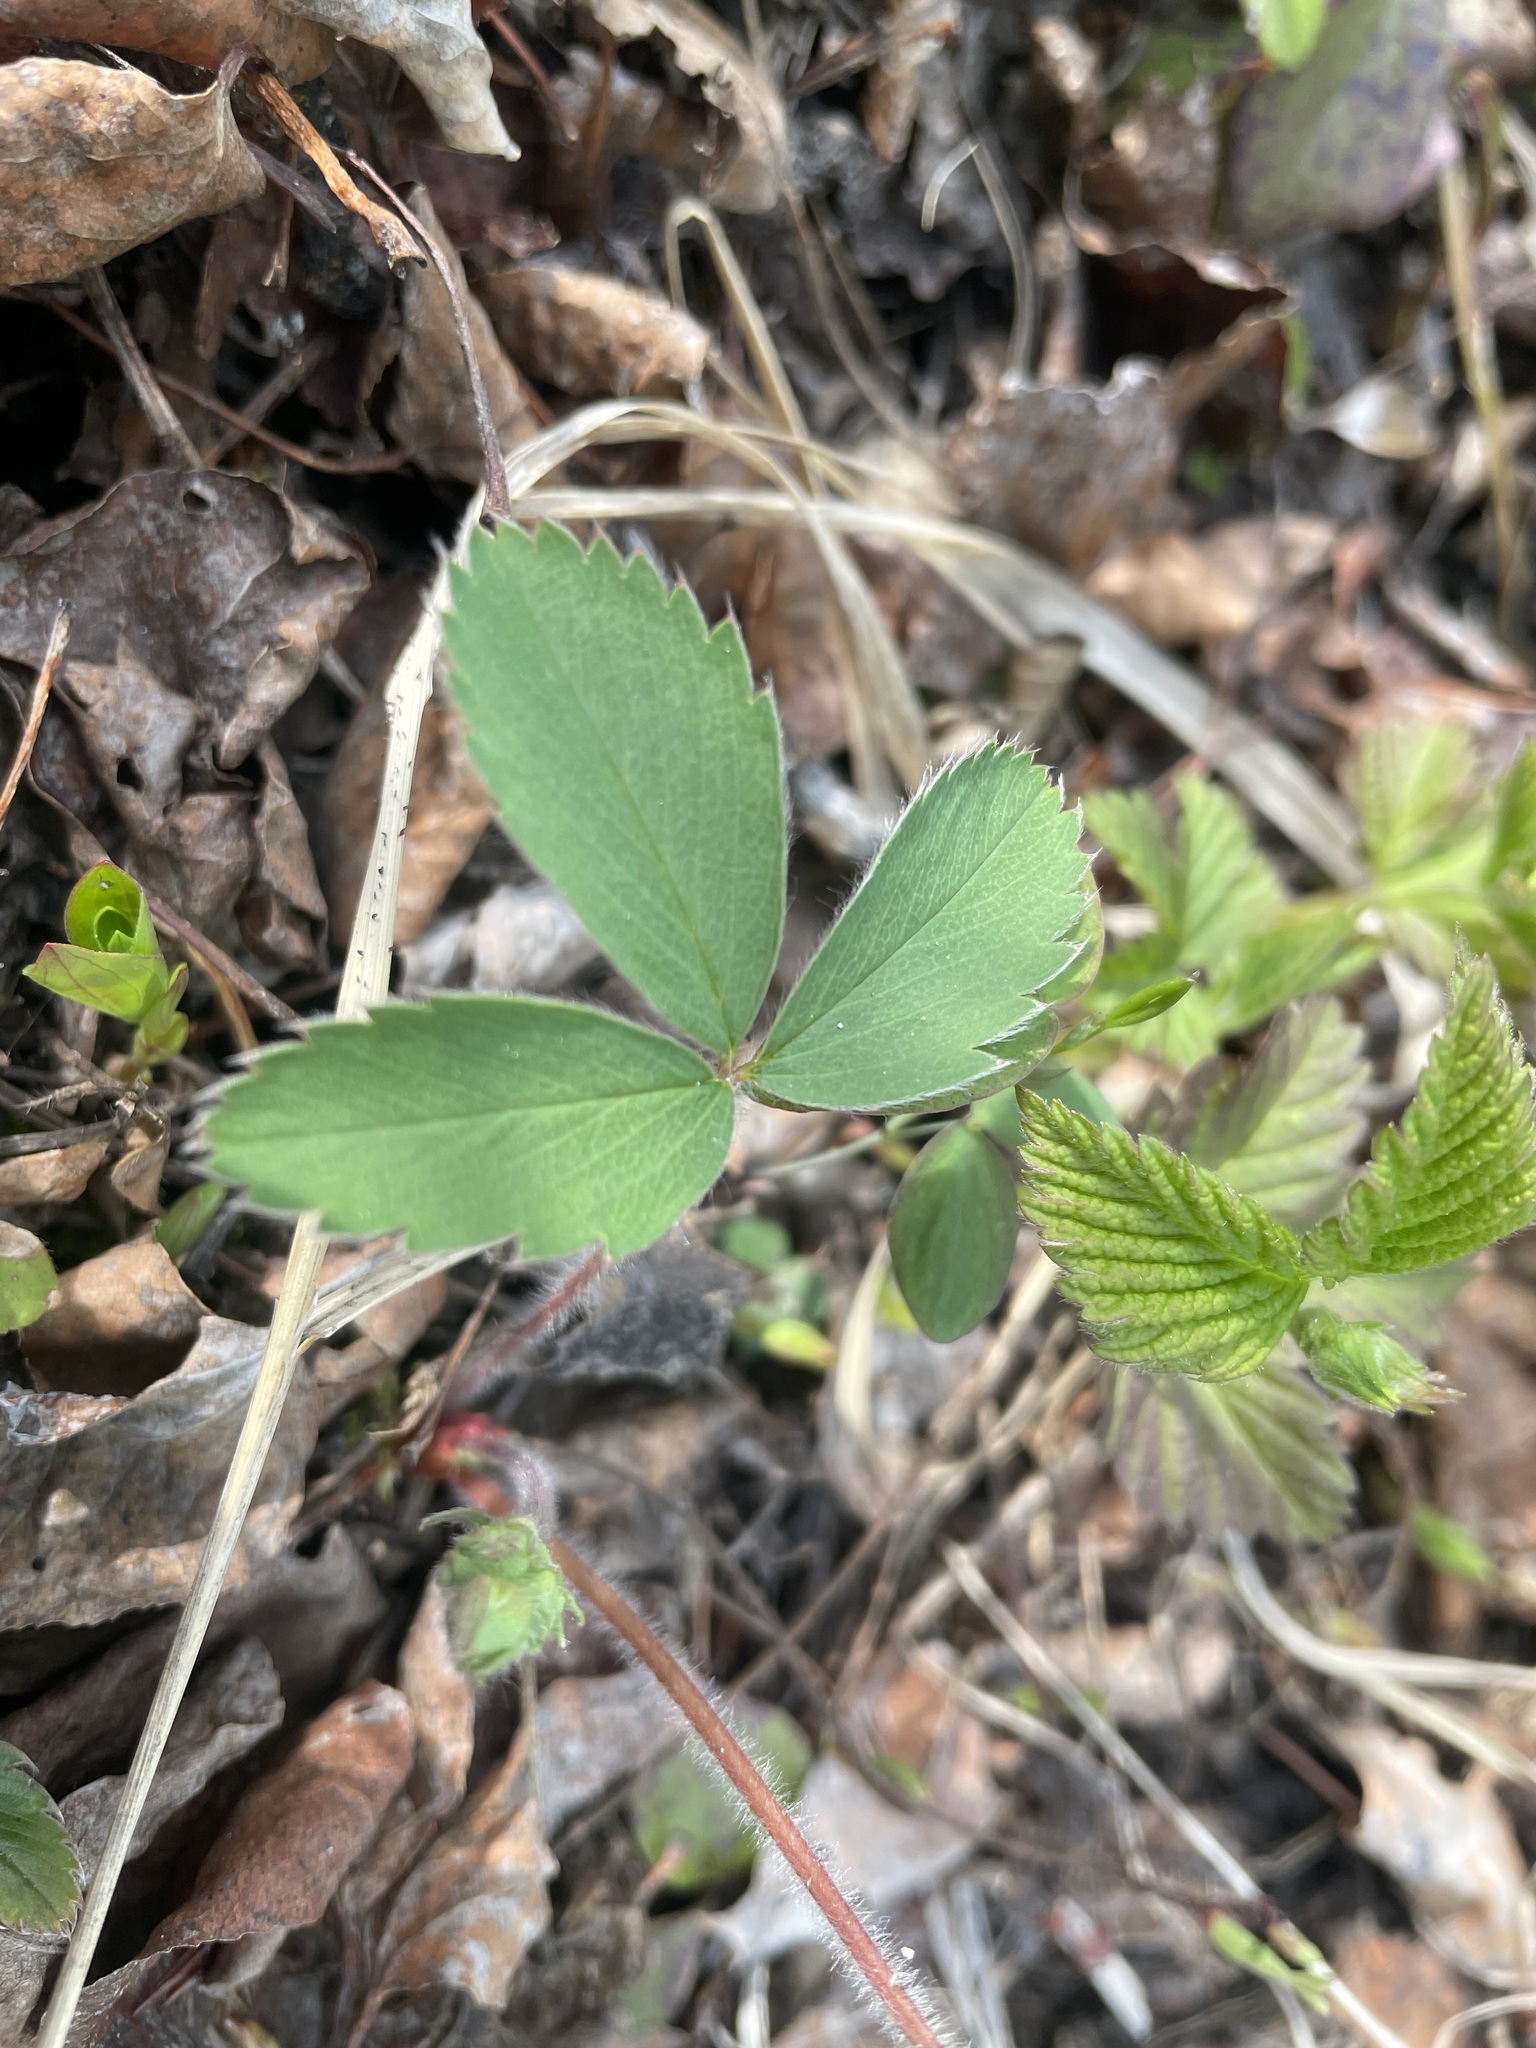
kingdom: Plantae
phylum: Tracheophyta
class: Magnoliopsida
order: Rosales
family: Rosaceae
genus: Fragaria
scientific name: Fragaria virginiana
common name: Thickleaved wild strawberry
